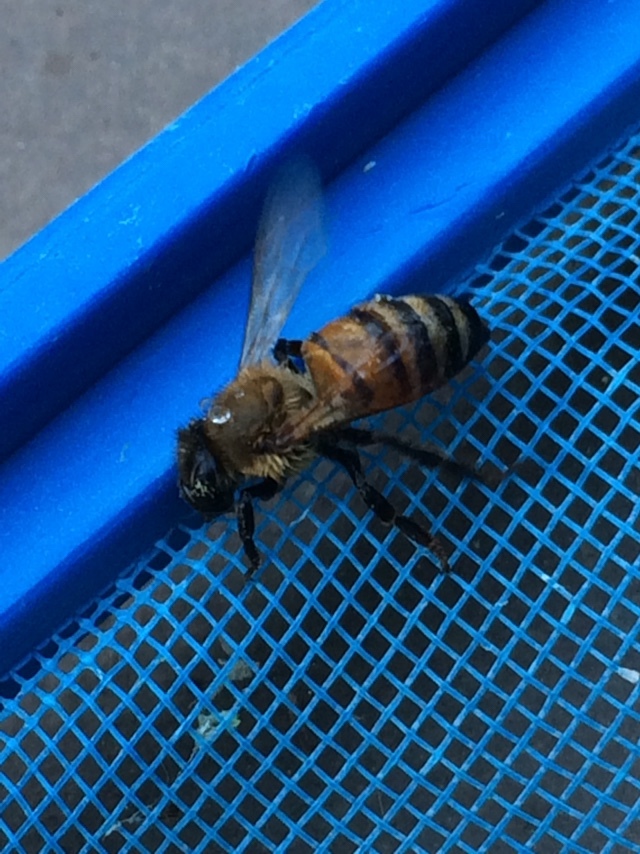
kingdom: Animalia
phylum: Arthropoda
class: Insecta
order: Hymenoptera
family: Apidae
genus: Apis
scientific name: Apis mellifera
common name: Honey bee
